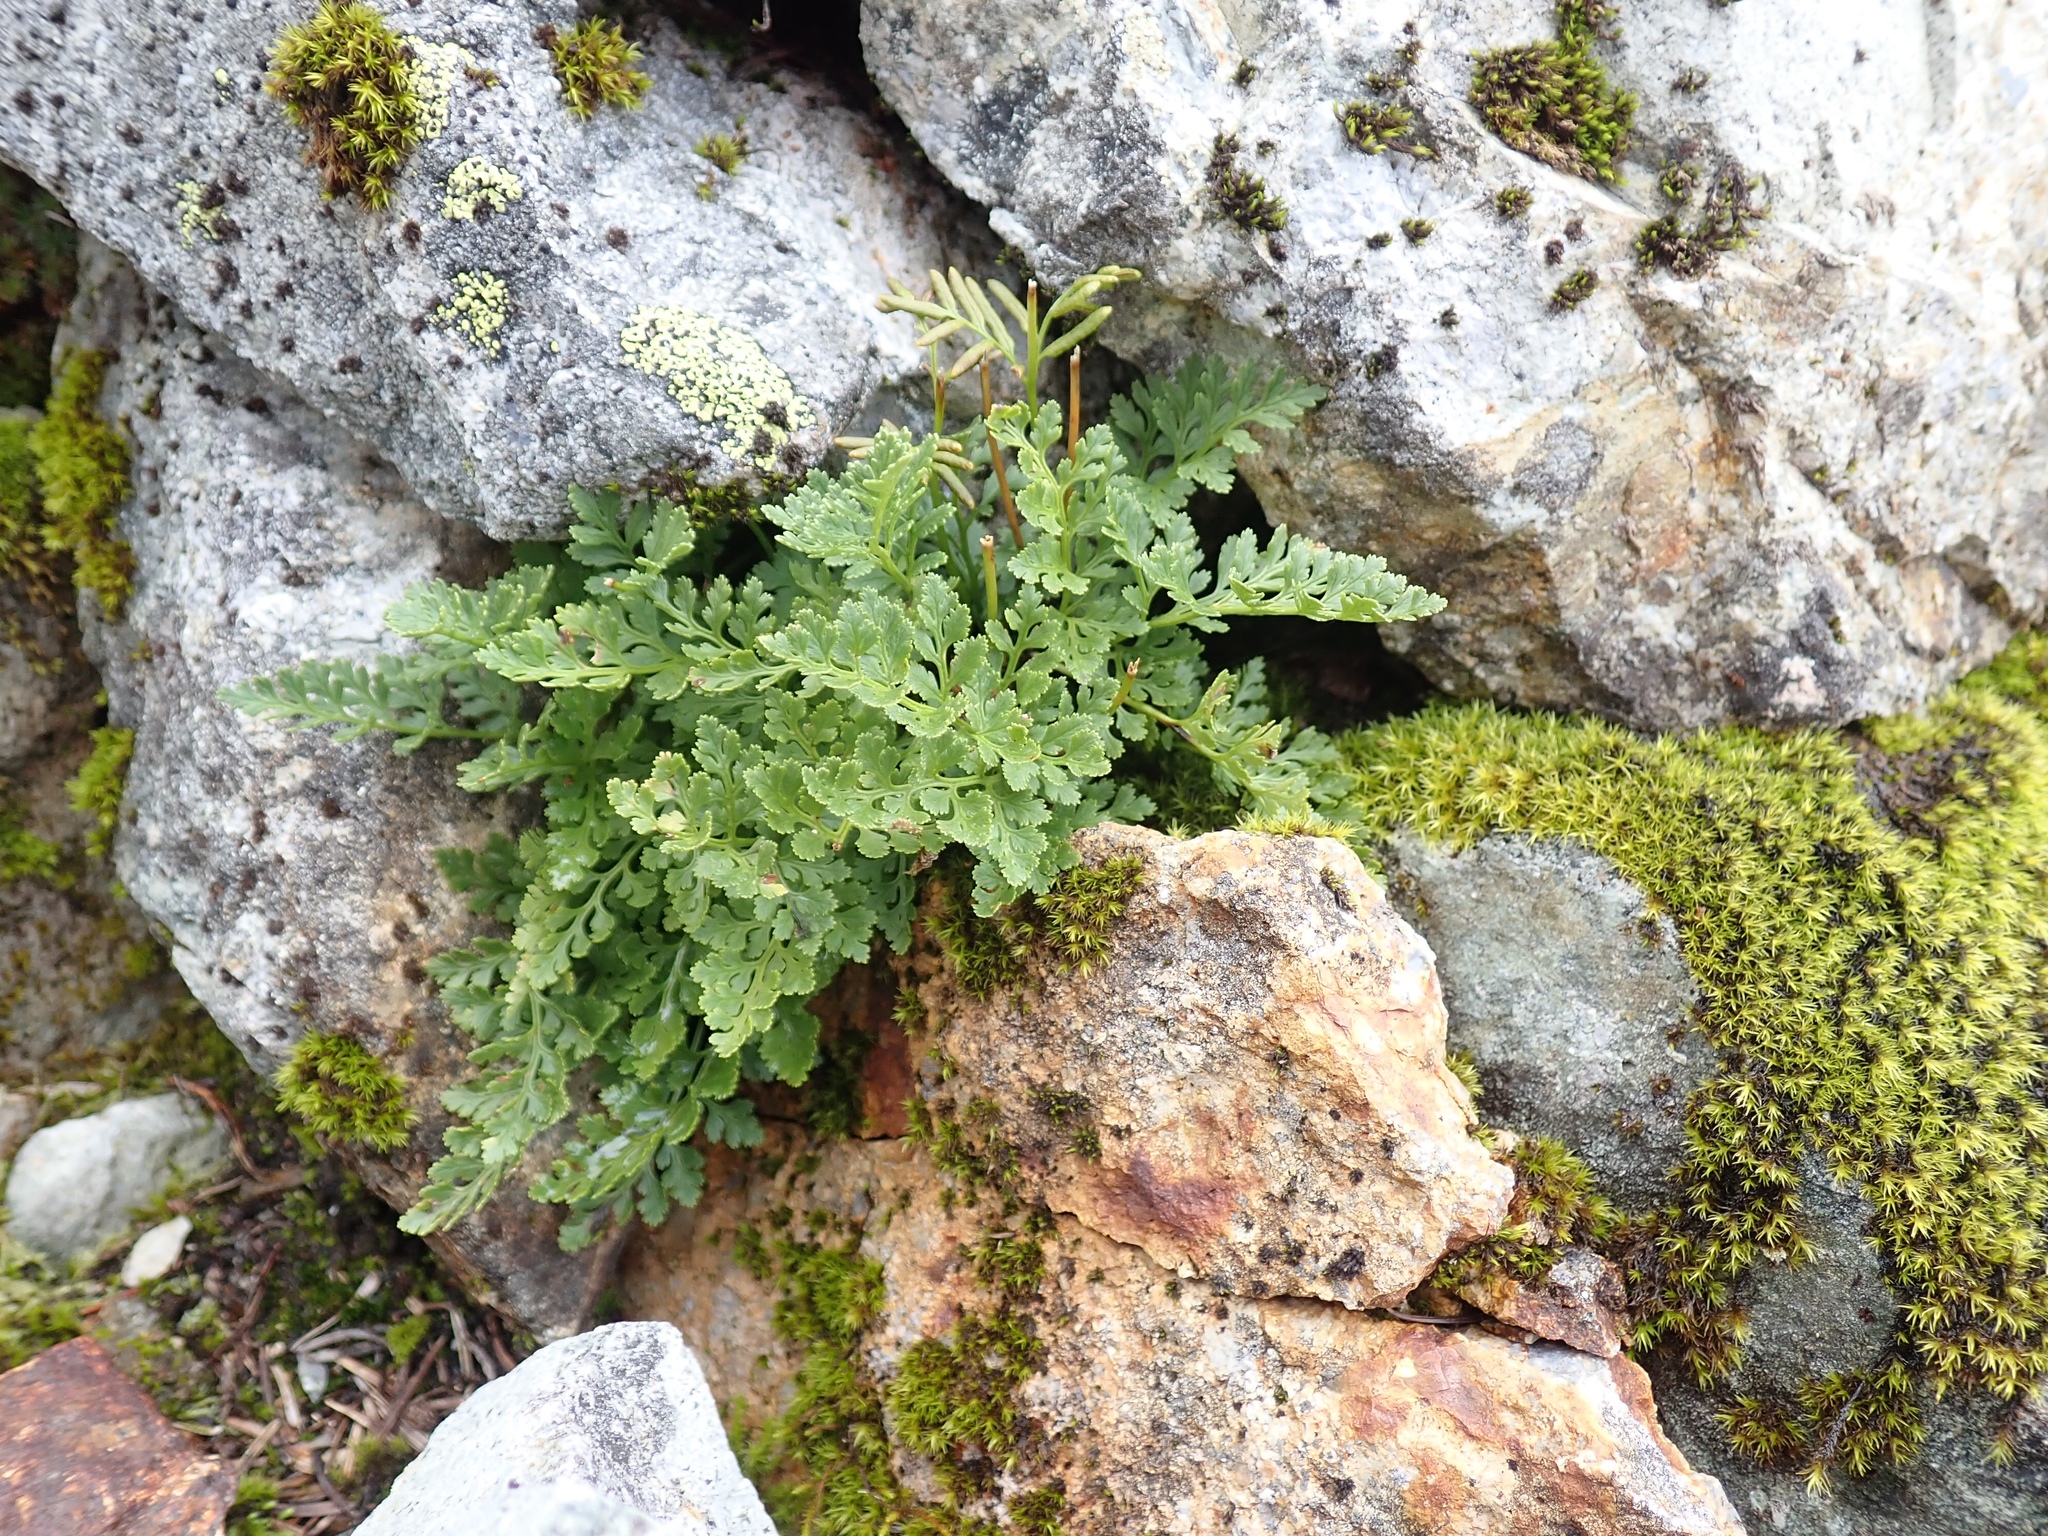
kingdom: Plantae
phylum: Tracheophyta
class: Polypodiopsida
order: Polypodiales
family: Pteridaceae
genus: Cryptogramma
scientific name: Cryptogramma acrostichoides
